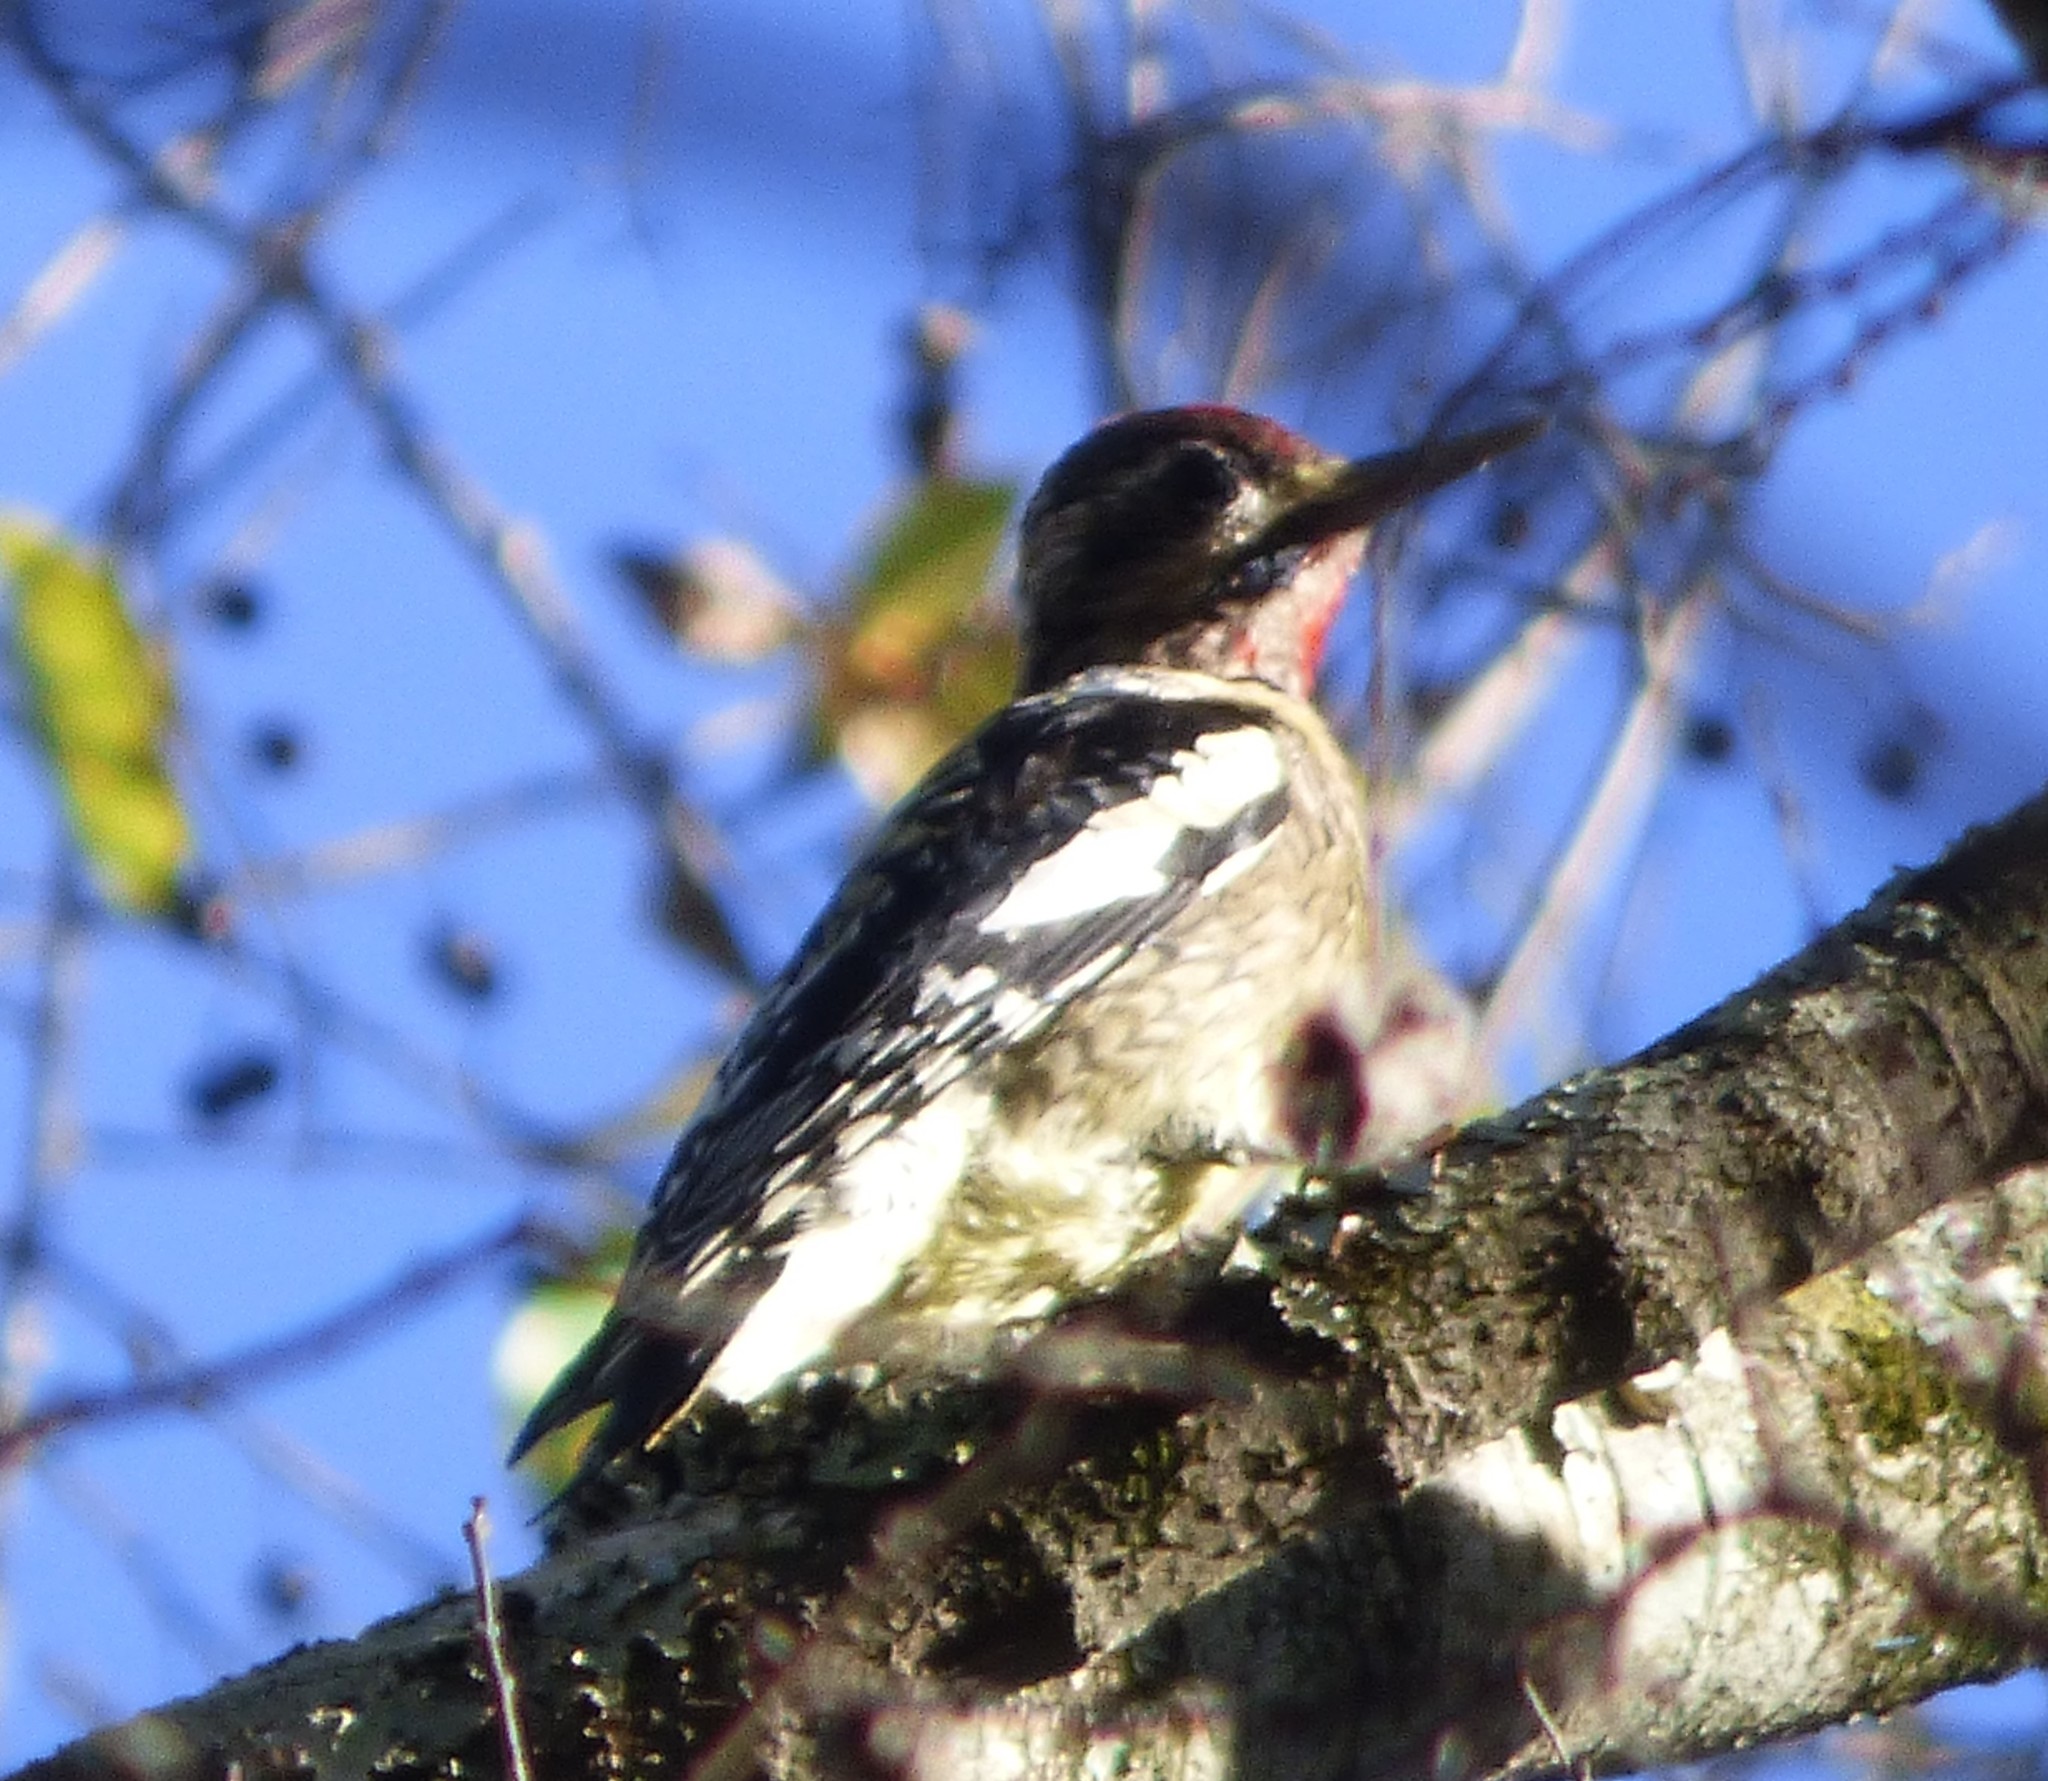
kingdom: Animalia
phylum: Chordata
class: Aves
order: Piciformes
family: Picidae
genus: Sphyrapicus
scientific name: Sphyrapicus varius
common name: Yellow-bellied sapsucker
